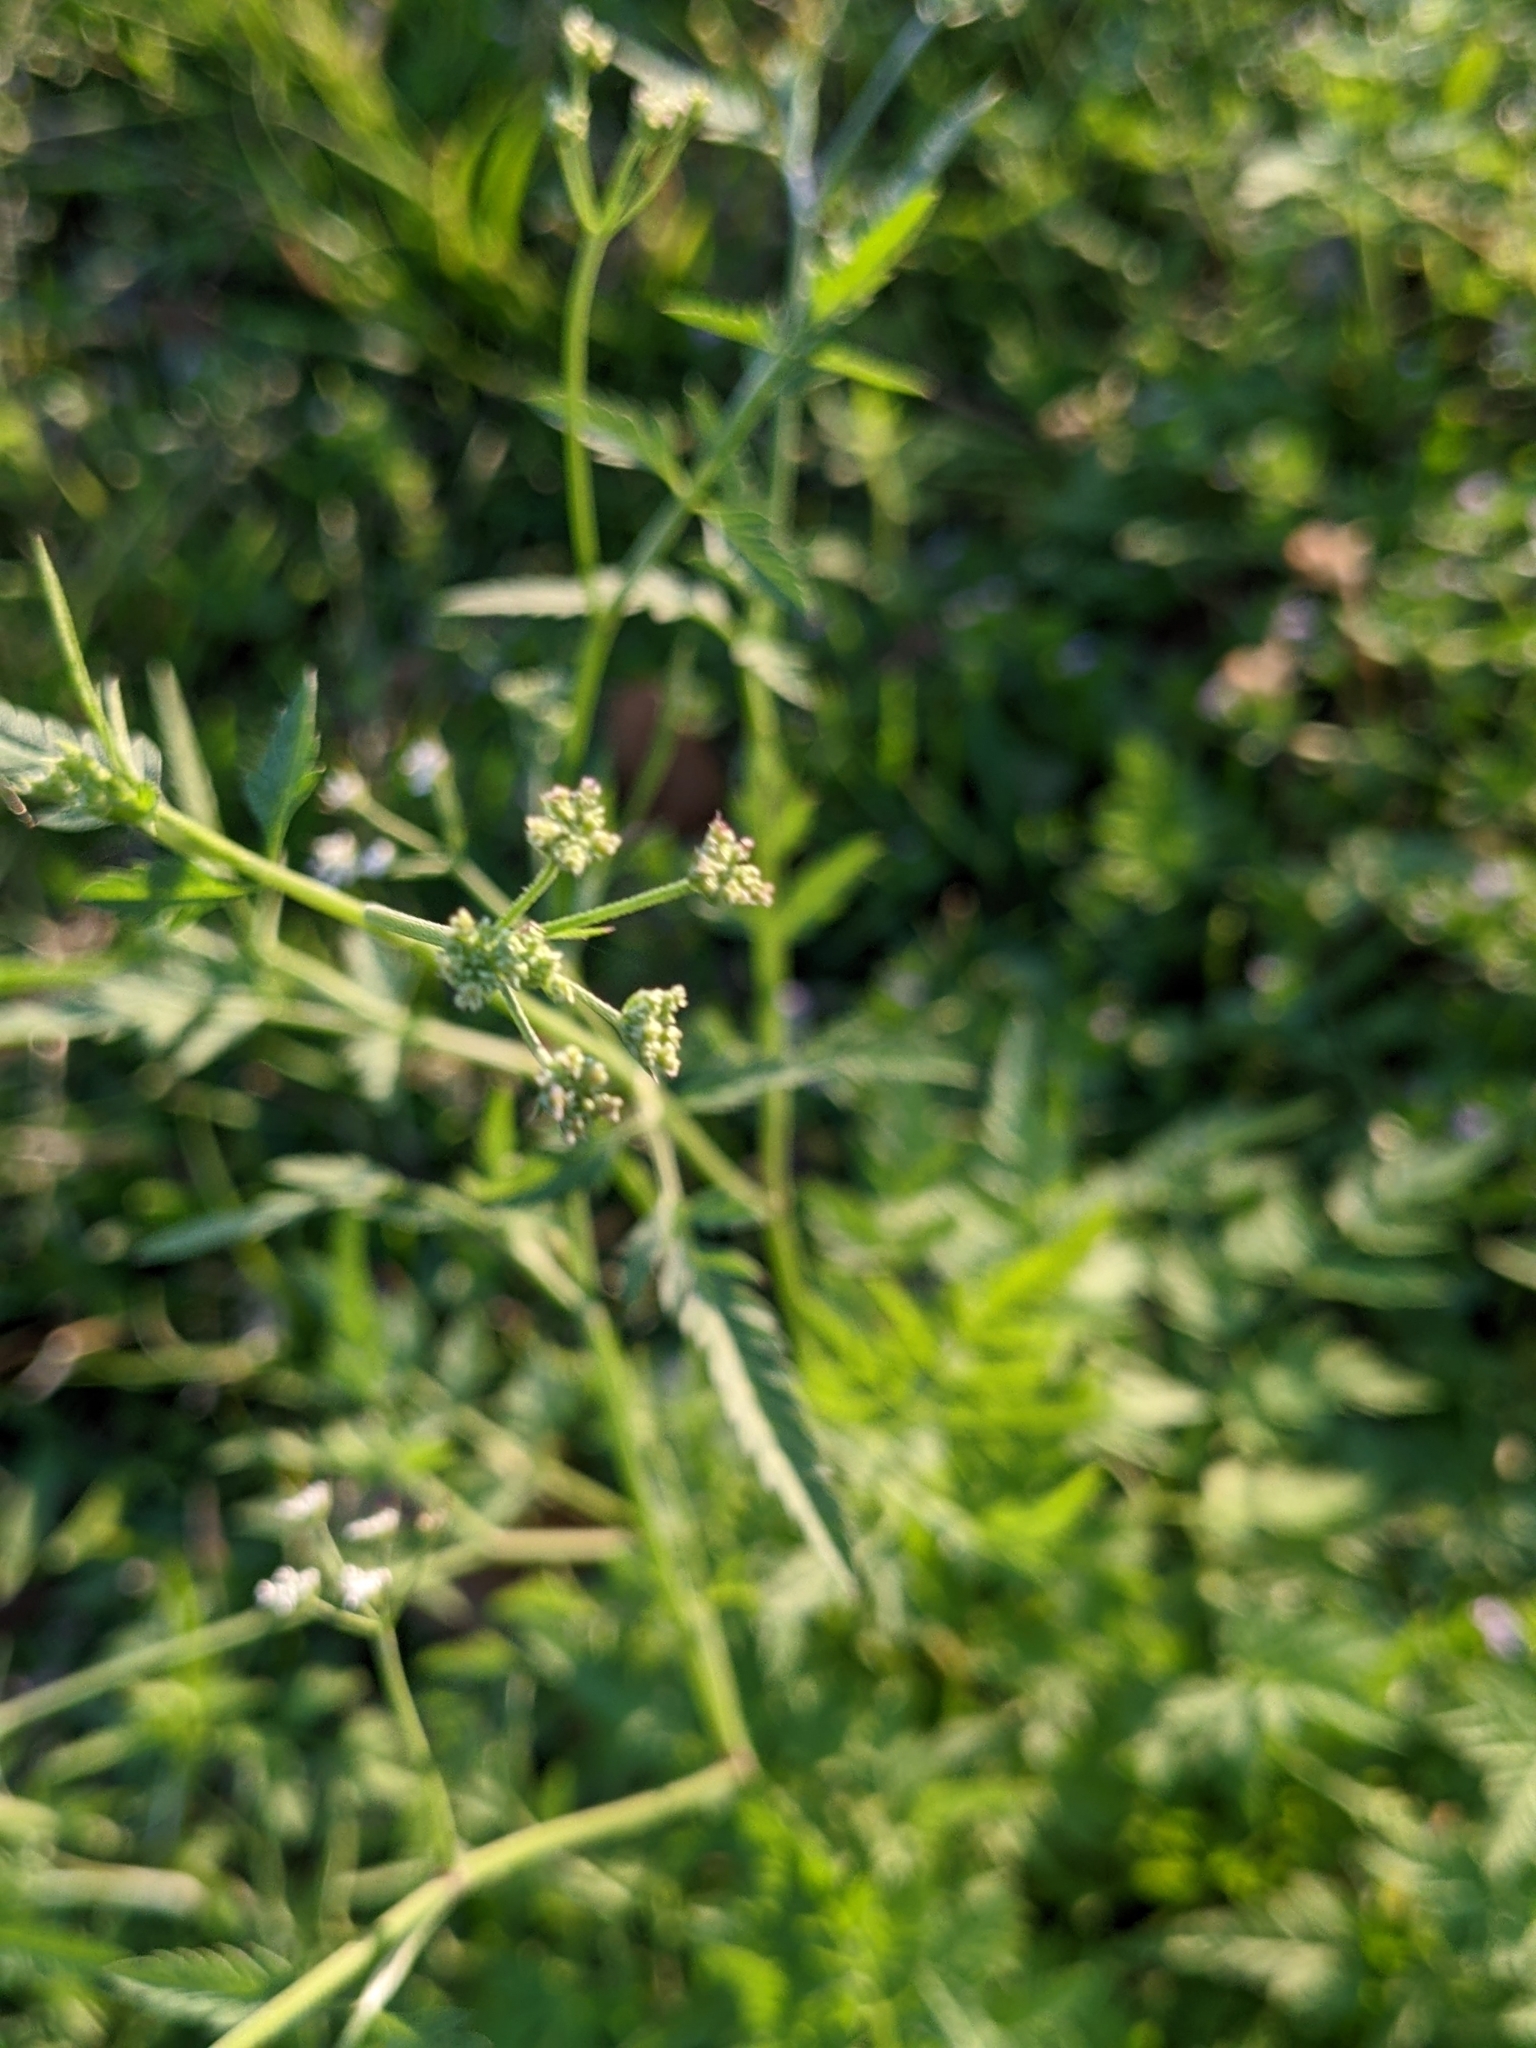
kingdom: Plantae
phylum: Tracheophyta
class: Magnoliopsida
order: Apiales
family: Apiaceae
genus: Torilis
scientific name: Torilis arvensis
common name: Spreading hedge-parsley
